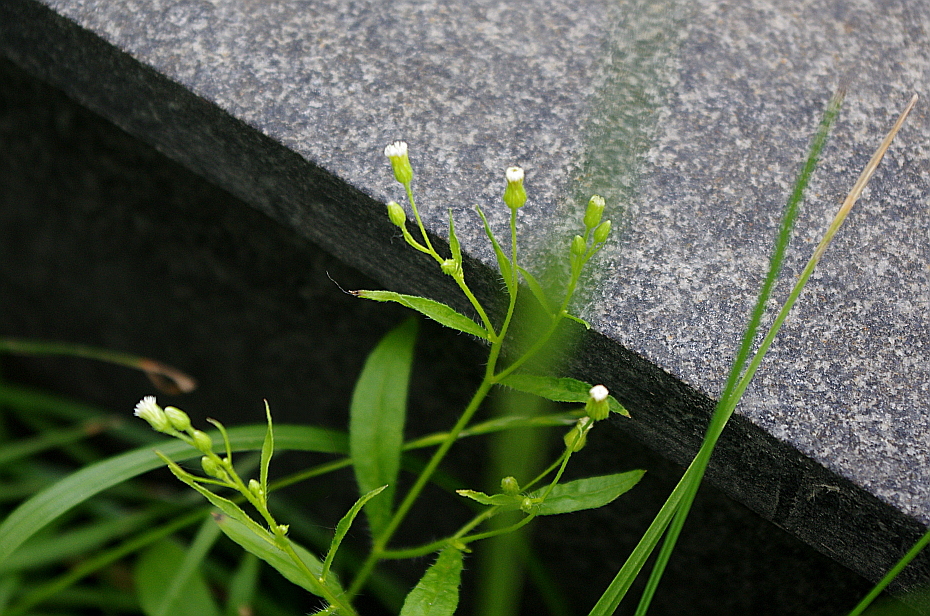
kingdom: Plantae
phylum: Tracheophyta
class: Magnoliopsida
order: Asterales
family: Asteraceae
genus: Erigeron
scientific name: Erigeron canadensis
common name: Canadian fleabane
